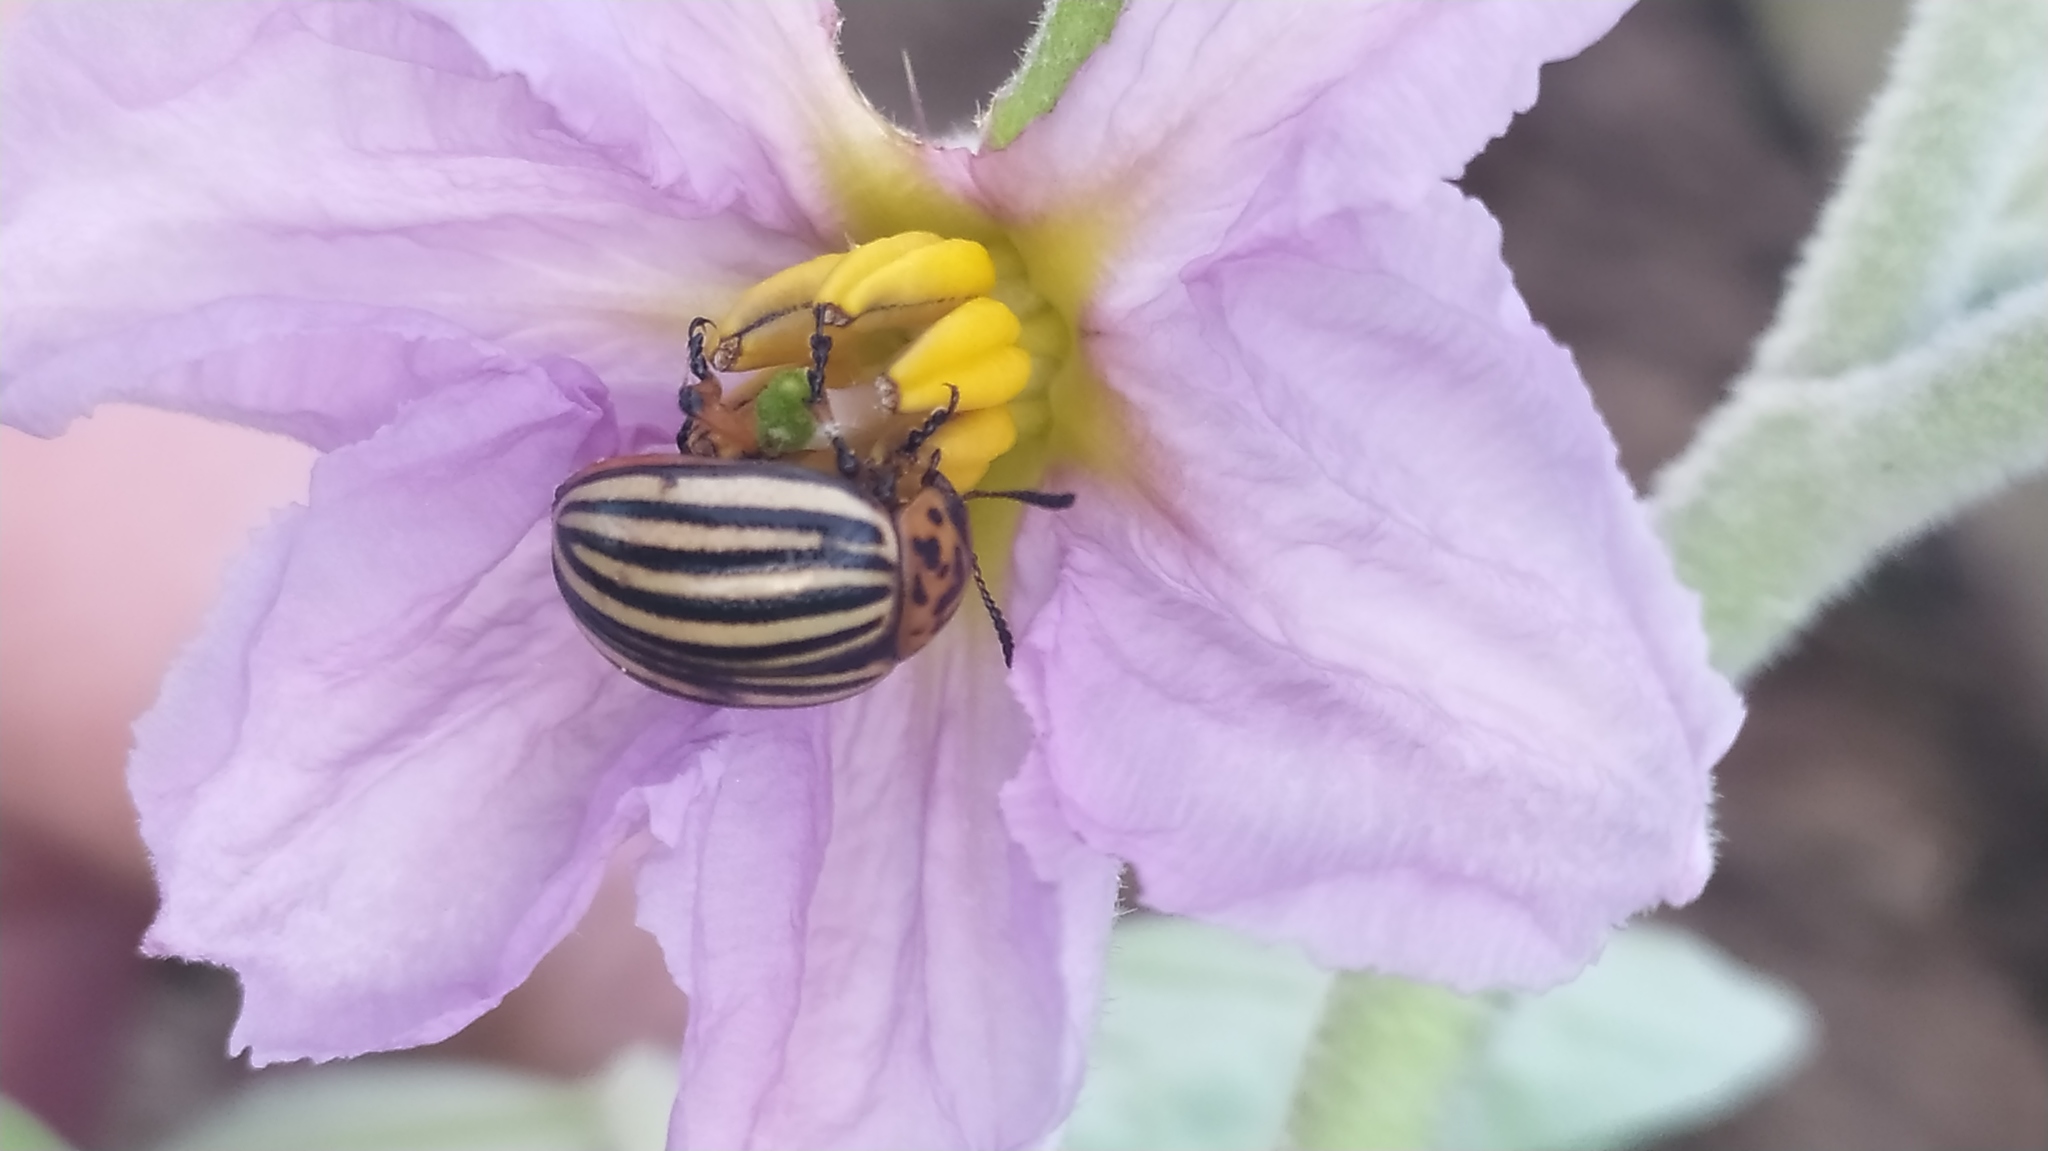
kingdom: Animalia
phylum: Arthropoda
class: Insecta
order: Coleoptera
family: Chrysomelidae
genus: Leptinotarsa
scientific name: Leptinotarsa decemlineata
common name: Colorado potato beetle
